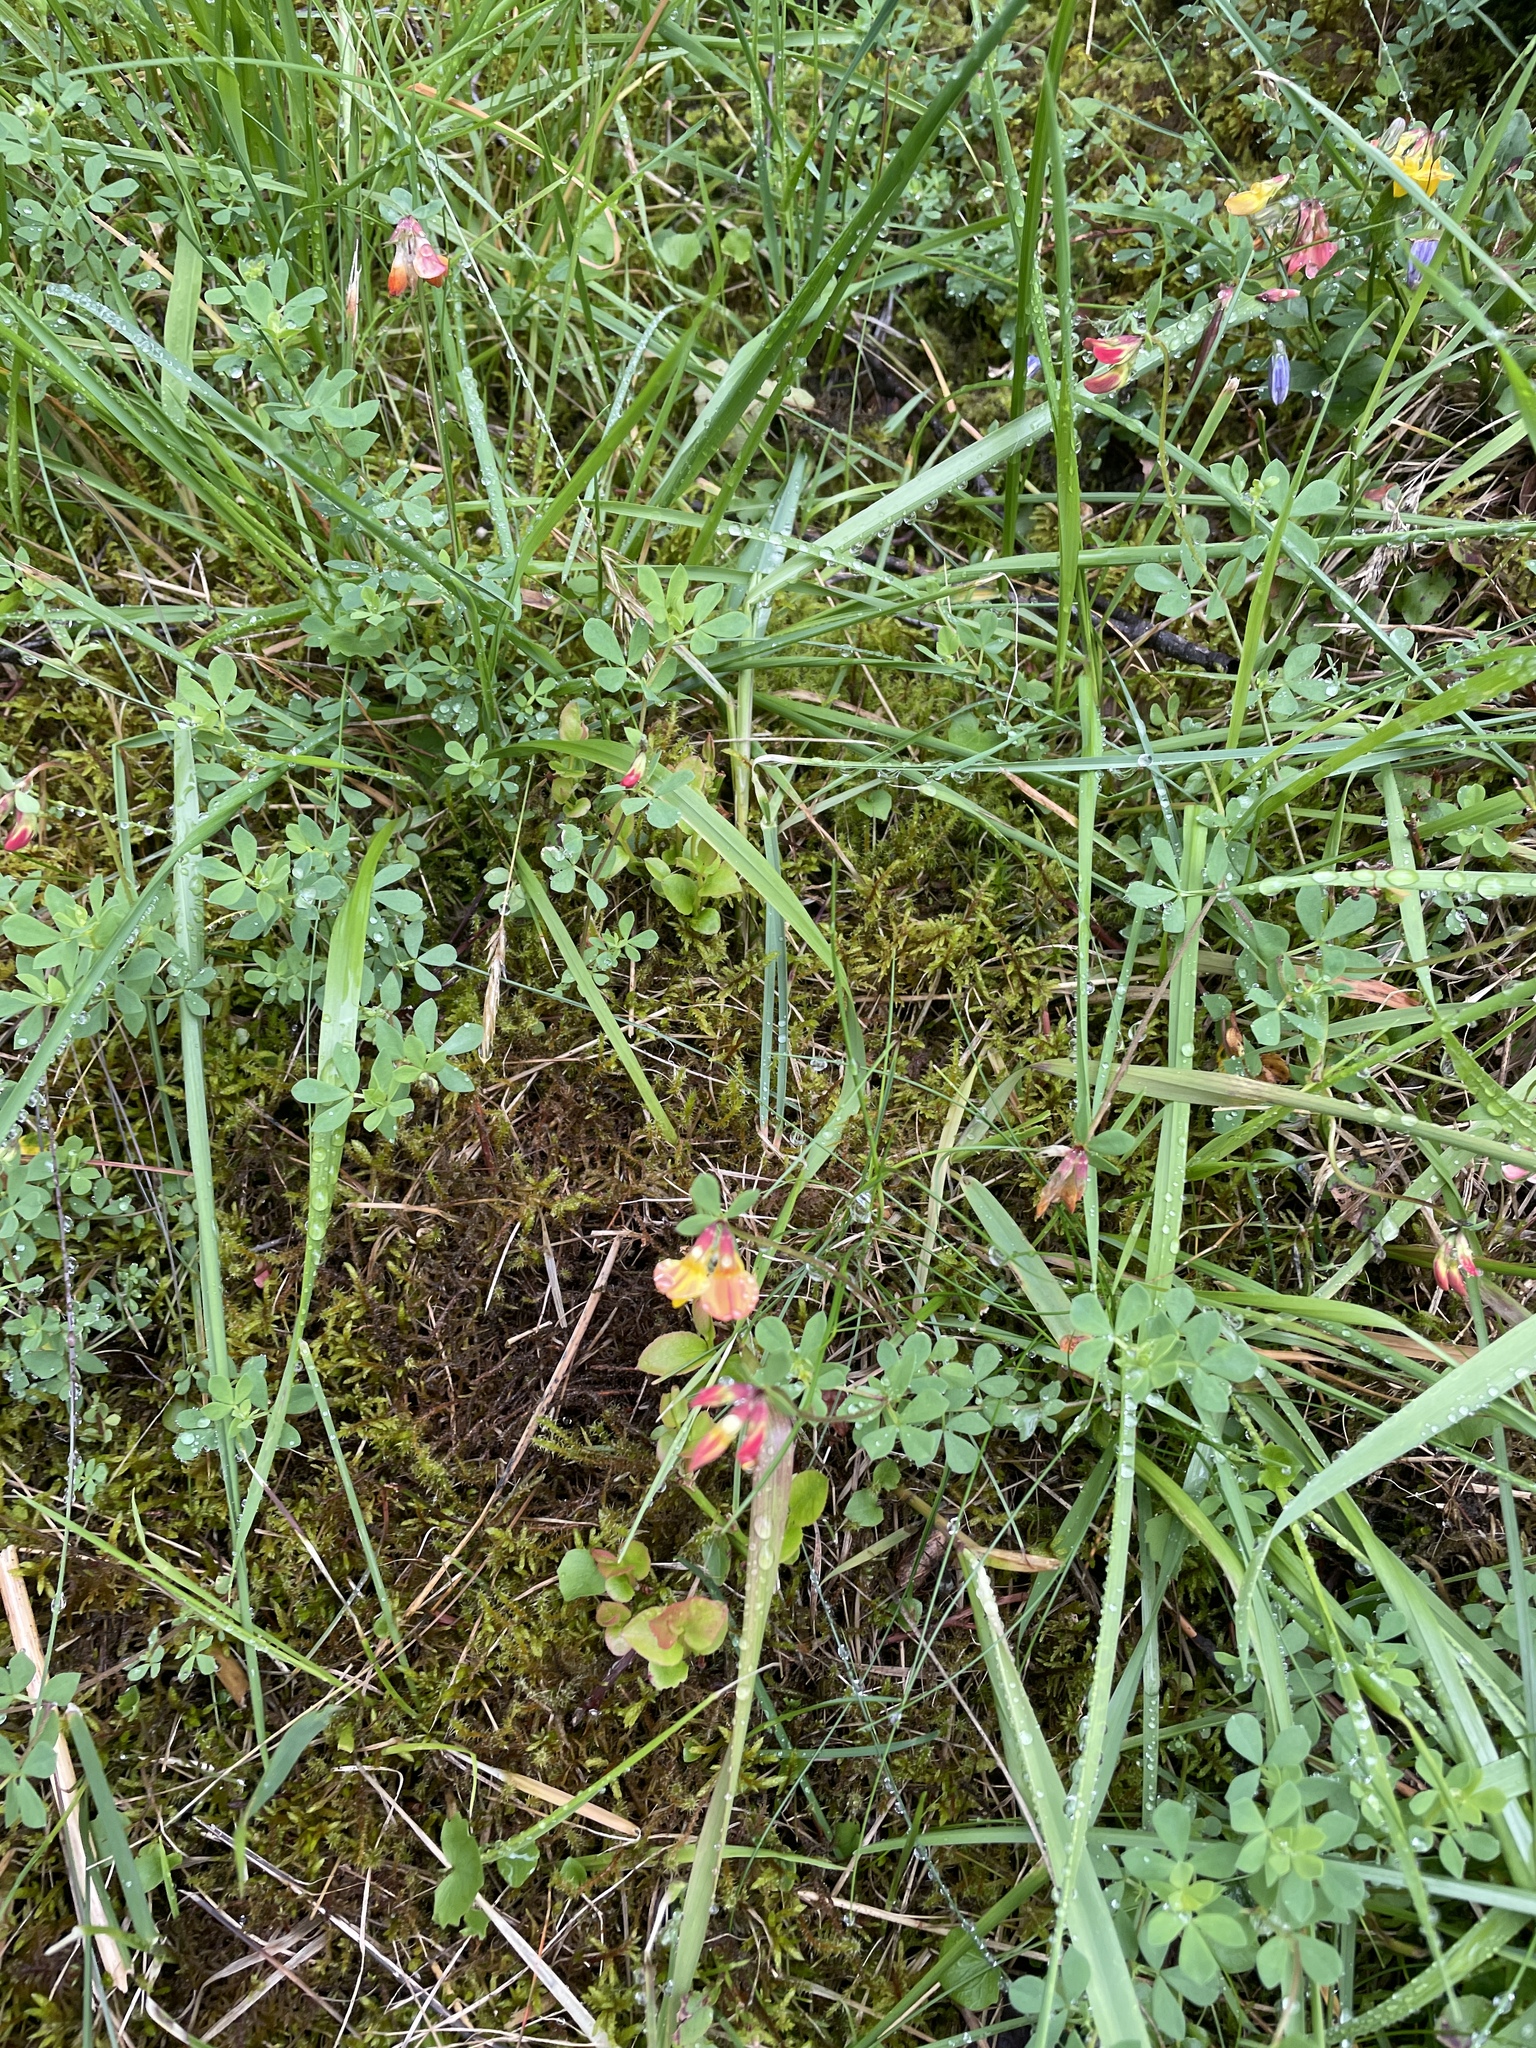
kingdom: Plantae
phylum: Tracheophyta
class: Magnoliopsida
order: Fabales
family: Fabaceae
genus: Lotus
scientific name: Lotus corniculatus
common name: Common bird's-foot-trefoil
